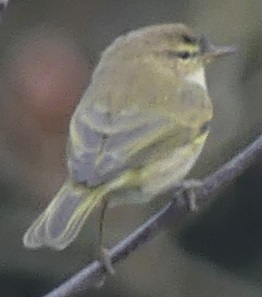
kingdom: Animalia
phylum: Chordata
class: Aves
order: Passeriformes
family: Phylloscopidae
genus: Phylloscopus
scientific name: Phylloscopus collybita
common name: Common chiffchaff
